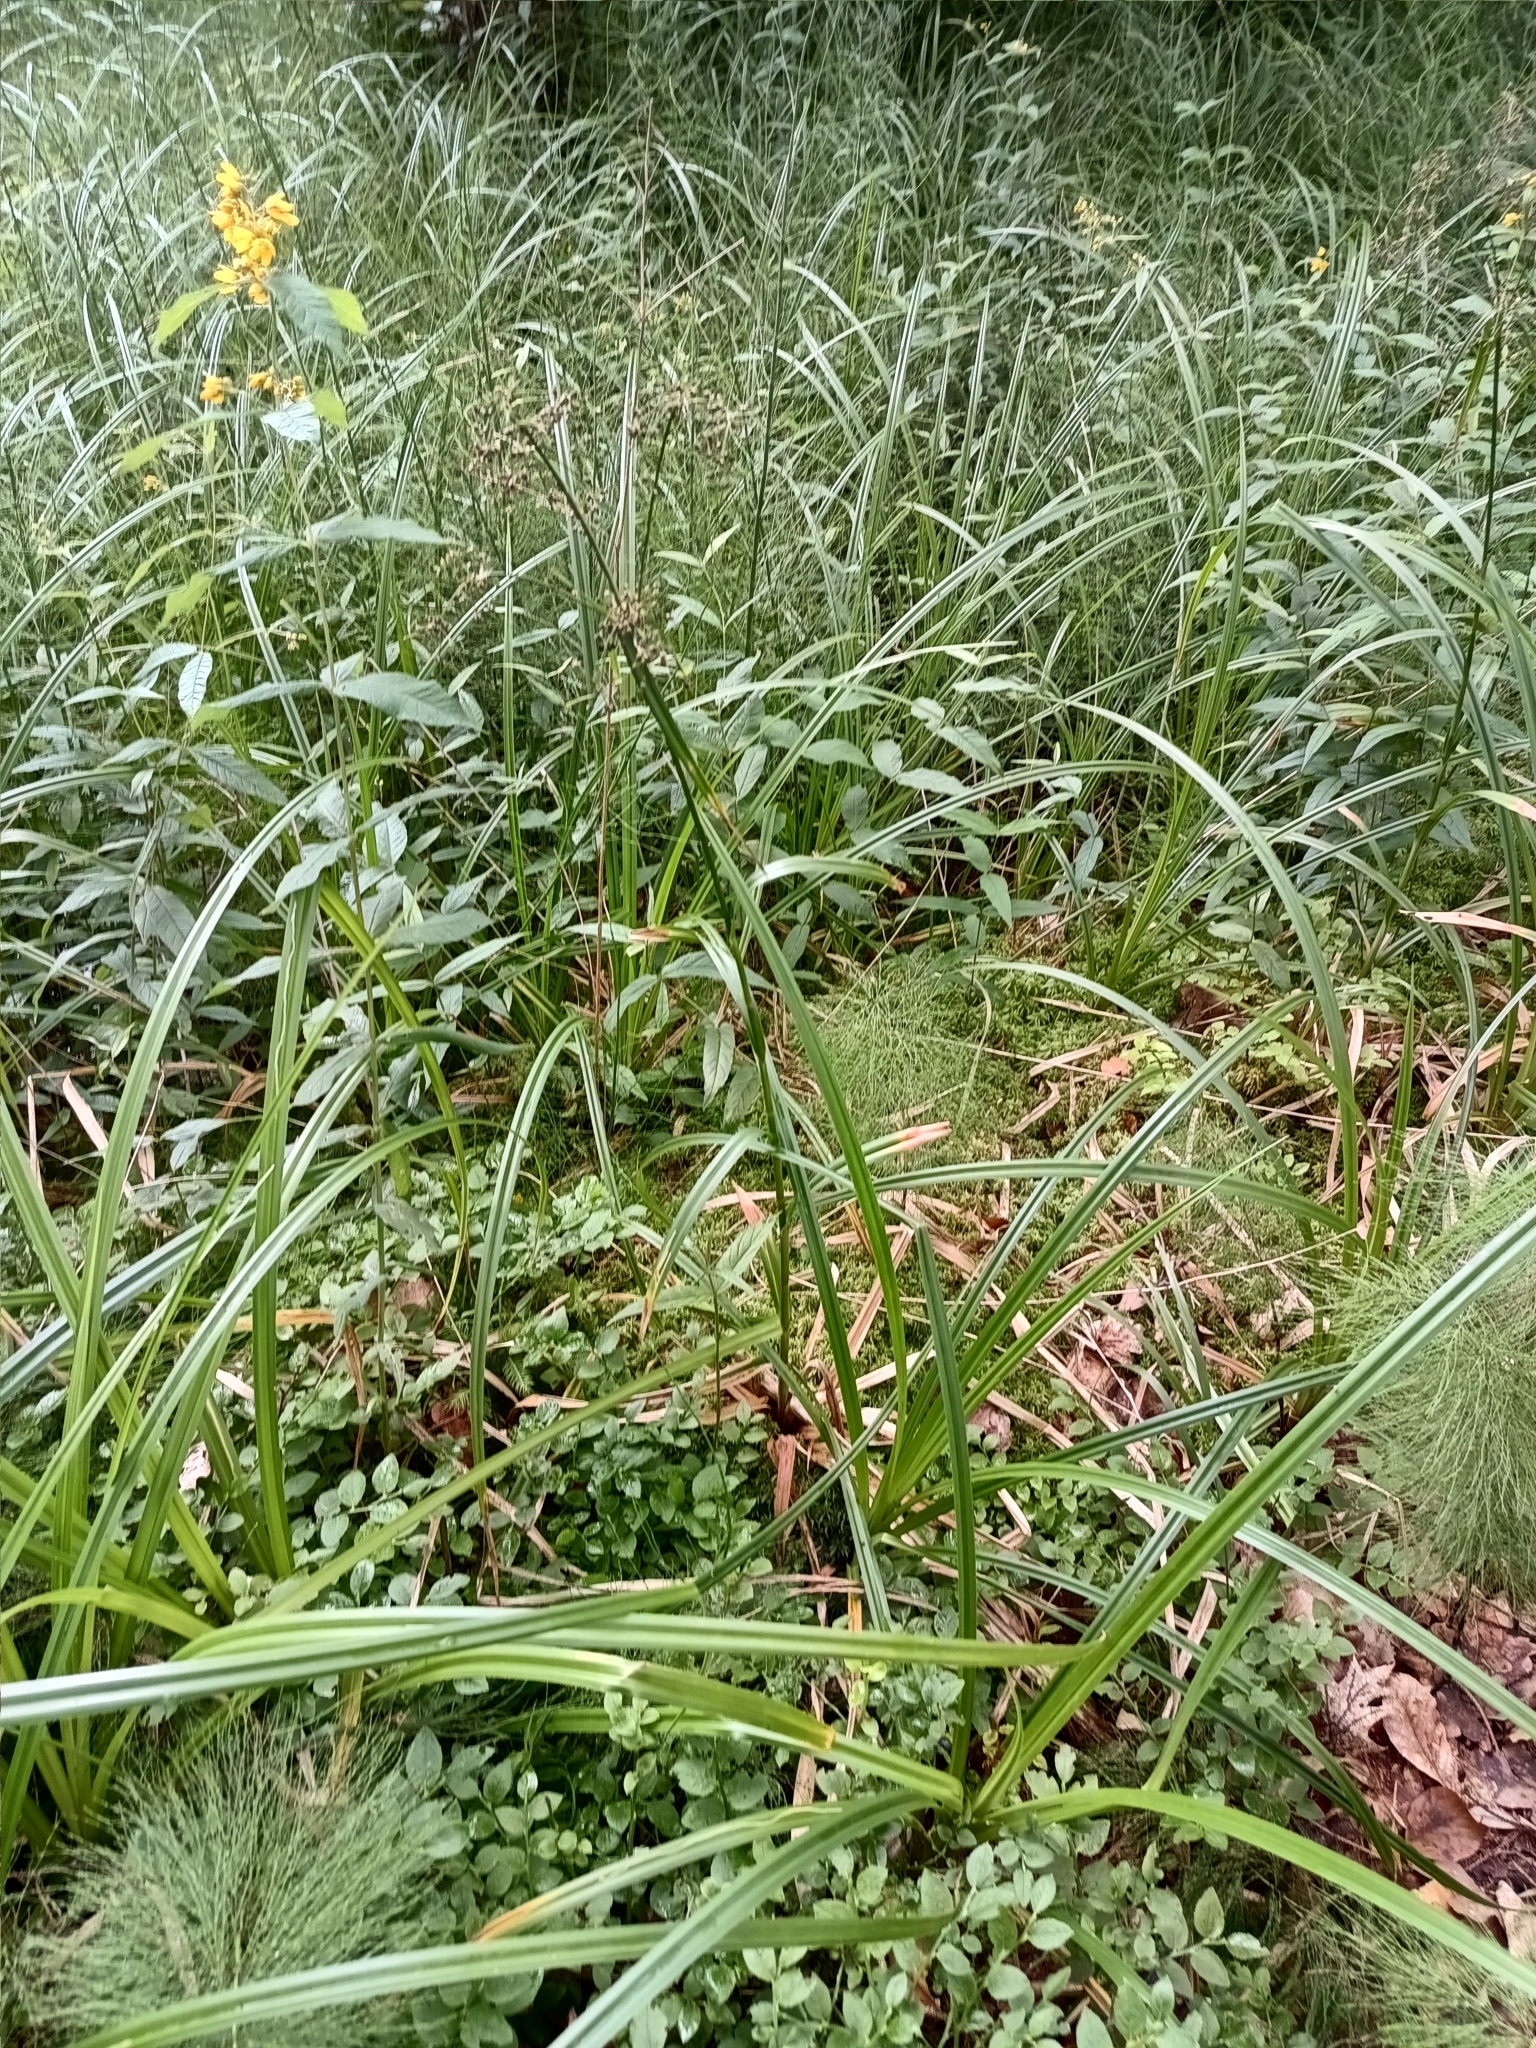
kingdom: Plantae
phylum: Tracheophyta
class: Liliopsida
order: Poales
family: Cyperaceae
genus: Scirpus
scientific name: Scirpus sylvaticus
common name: Wood club-rush
